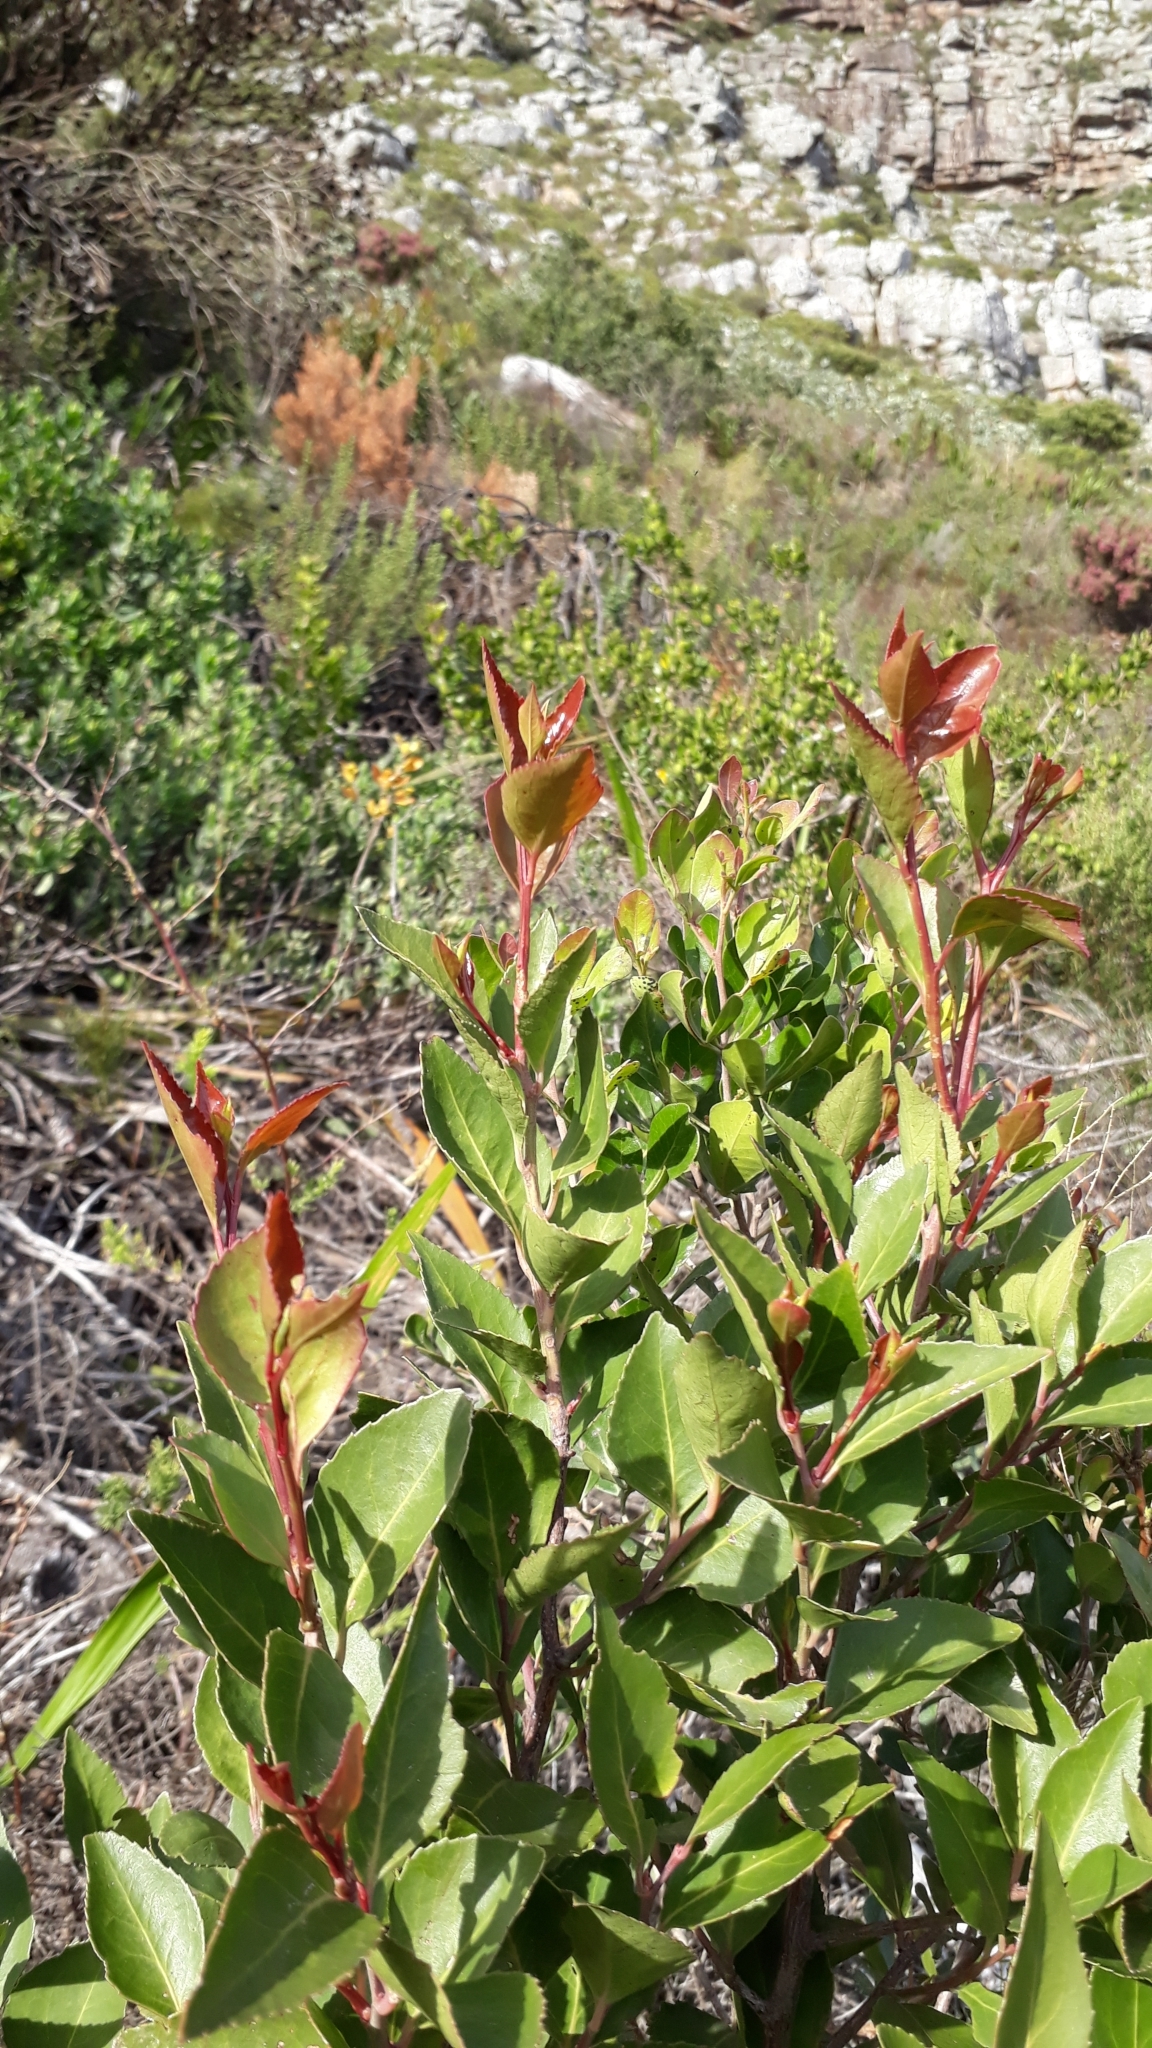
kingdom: Plantae
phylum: Tracheophyta
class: Magnoliopsida
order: Celastrales
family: Celastraceae
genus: Gymnosporia
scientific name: Gymnosporia acuminata
